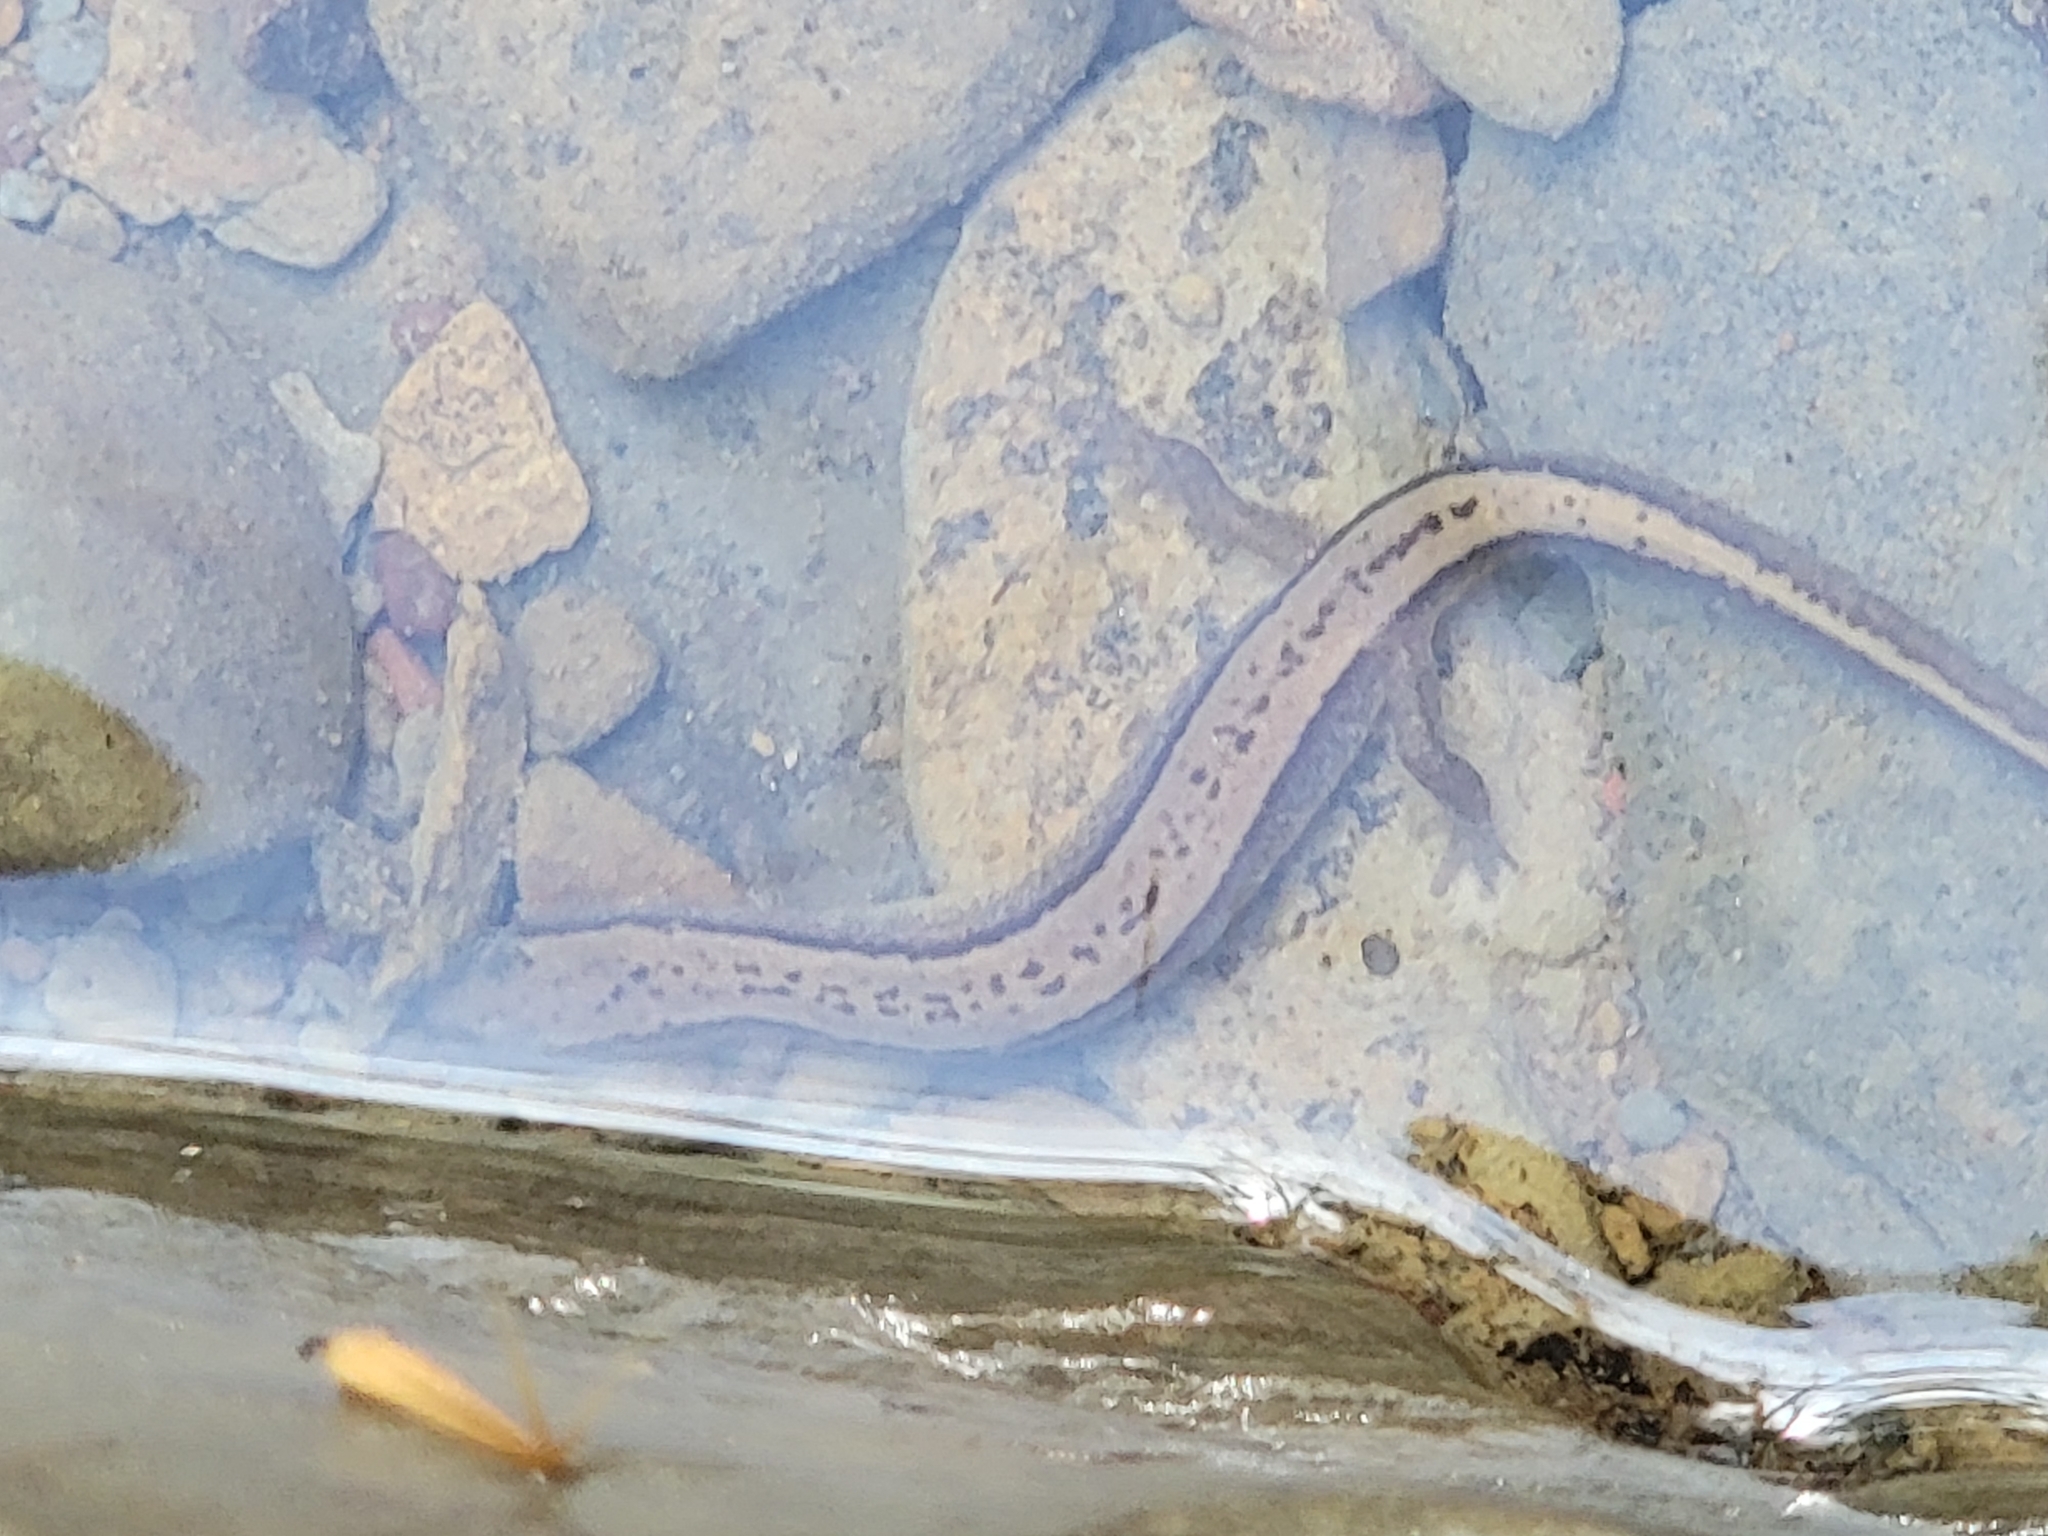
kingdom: Animalia
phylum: Chordata
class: Amphibia
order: Caudata
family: Plethodontidae
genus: Eurycea
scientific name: Eurycea cirrigera
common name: Southern two-lined salamander
